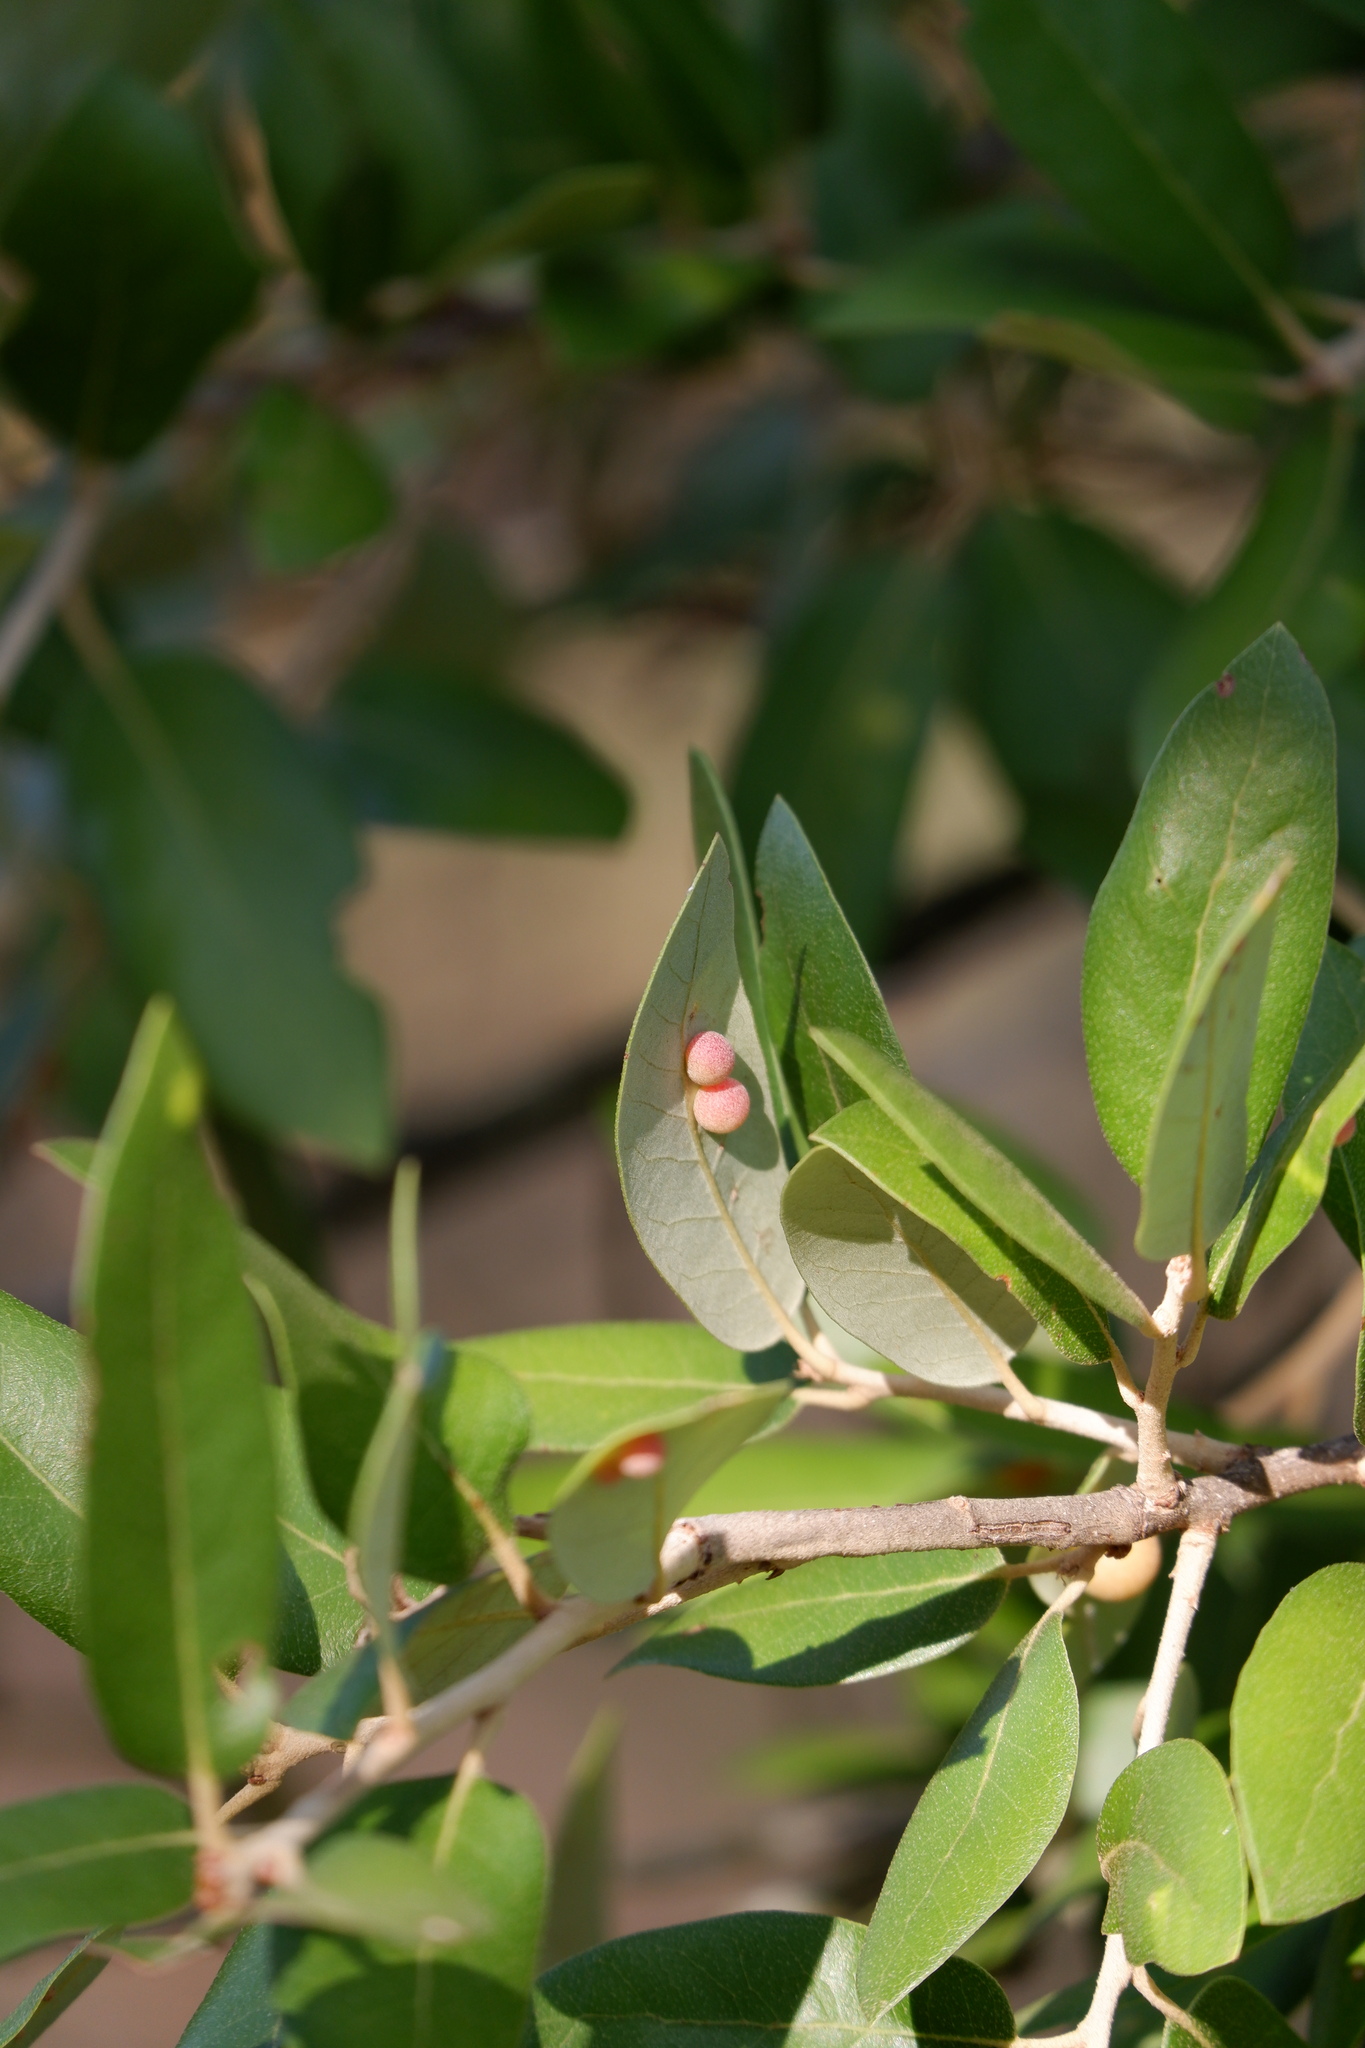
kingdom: Animalia
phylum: Arthropoda
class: Insecta
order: Hymenoptera
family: Cynipidae
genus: Belonocnema
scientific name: Belonocnema kinseyi
